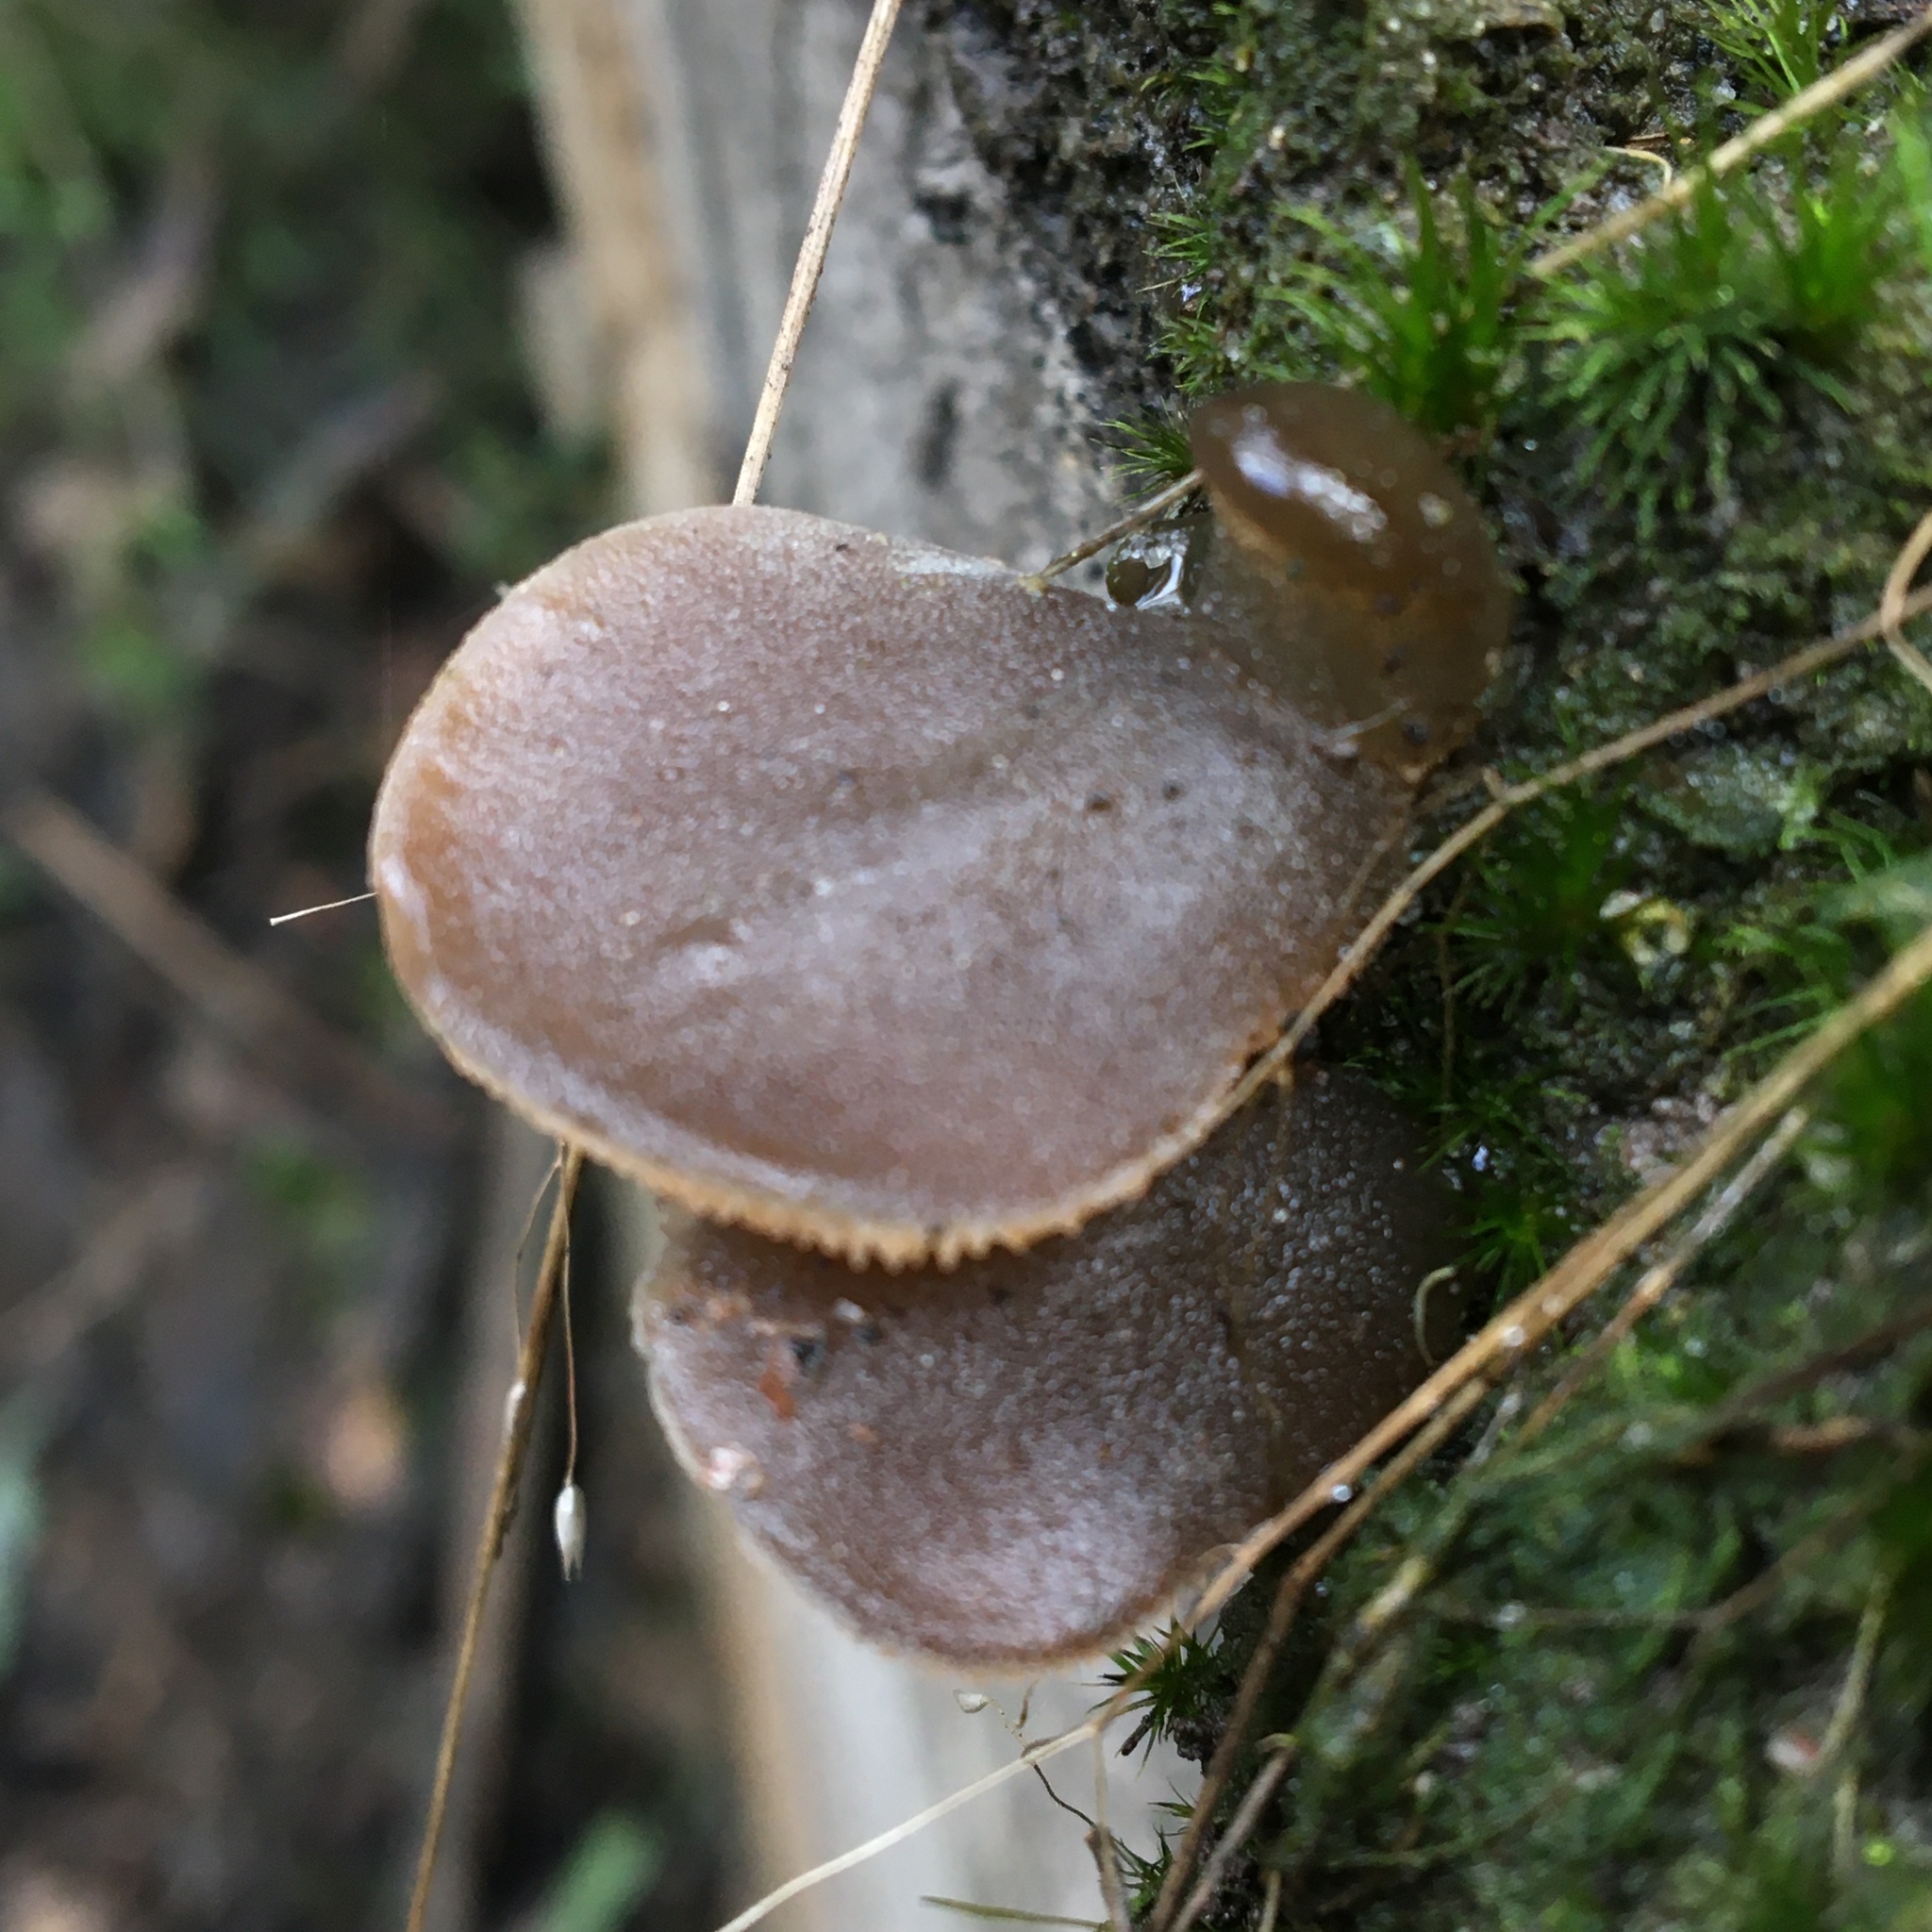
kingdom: Fungi
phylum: Basidiomycota
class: Agaricomycetes
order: Auriculariales
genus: Pseudohydnum
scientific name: Pseudohydnum gelatinosum
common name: Jelly tongue
